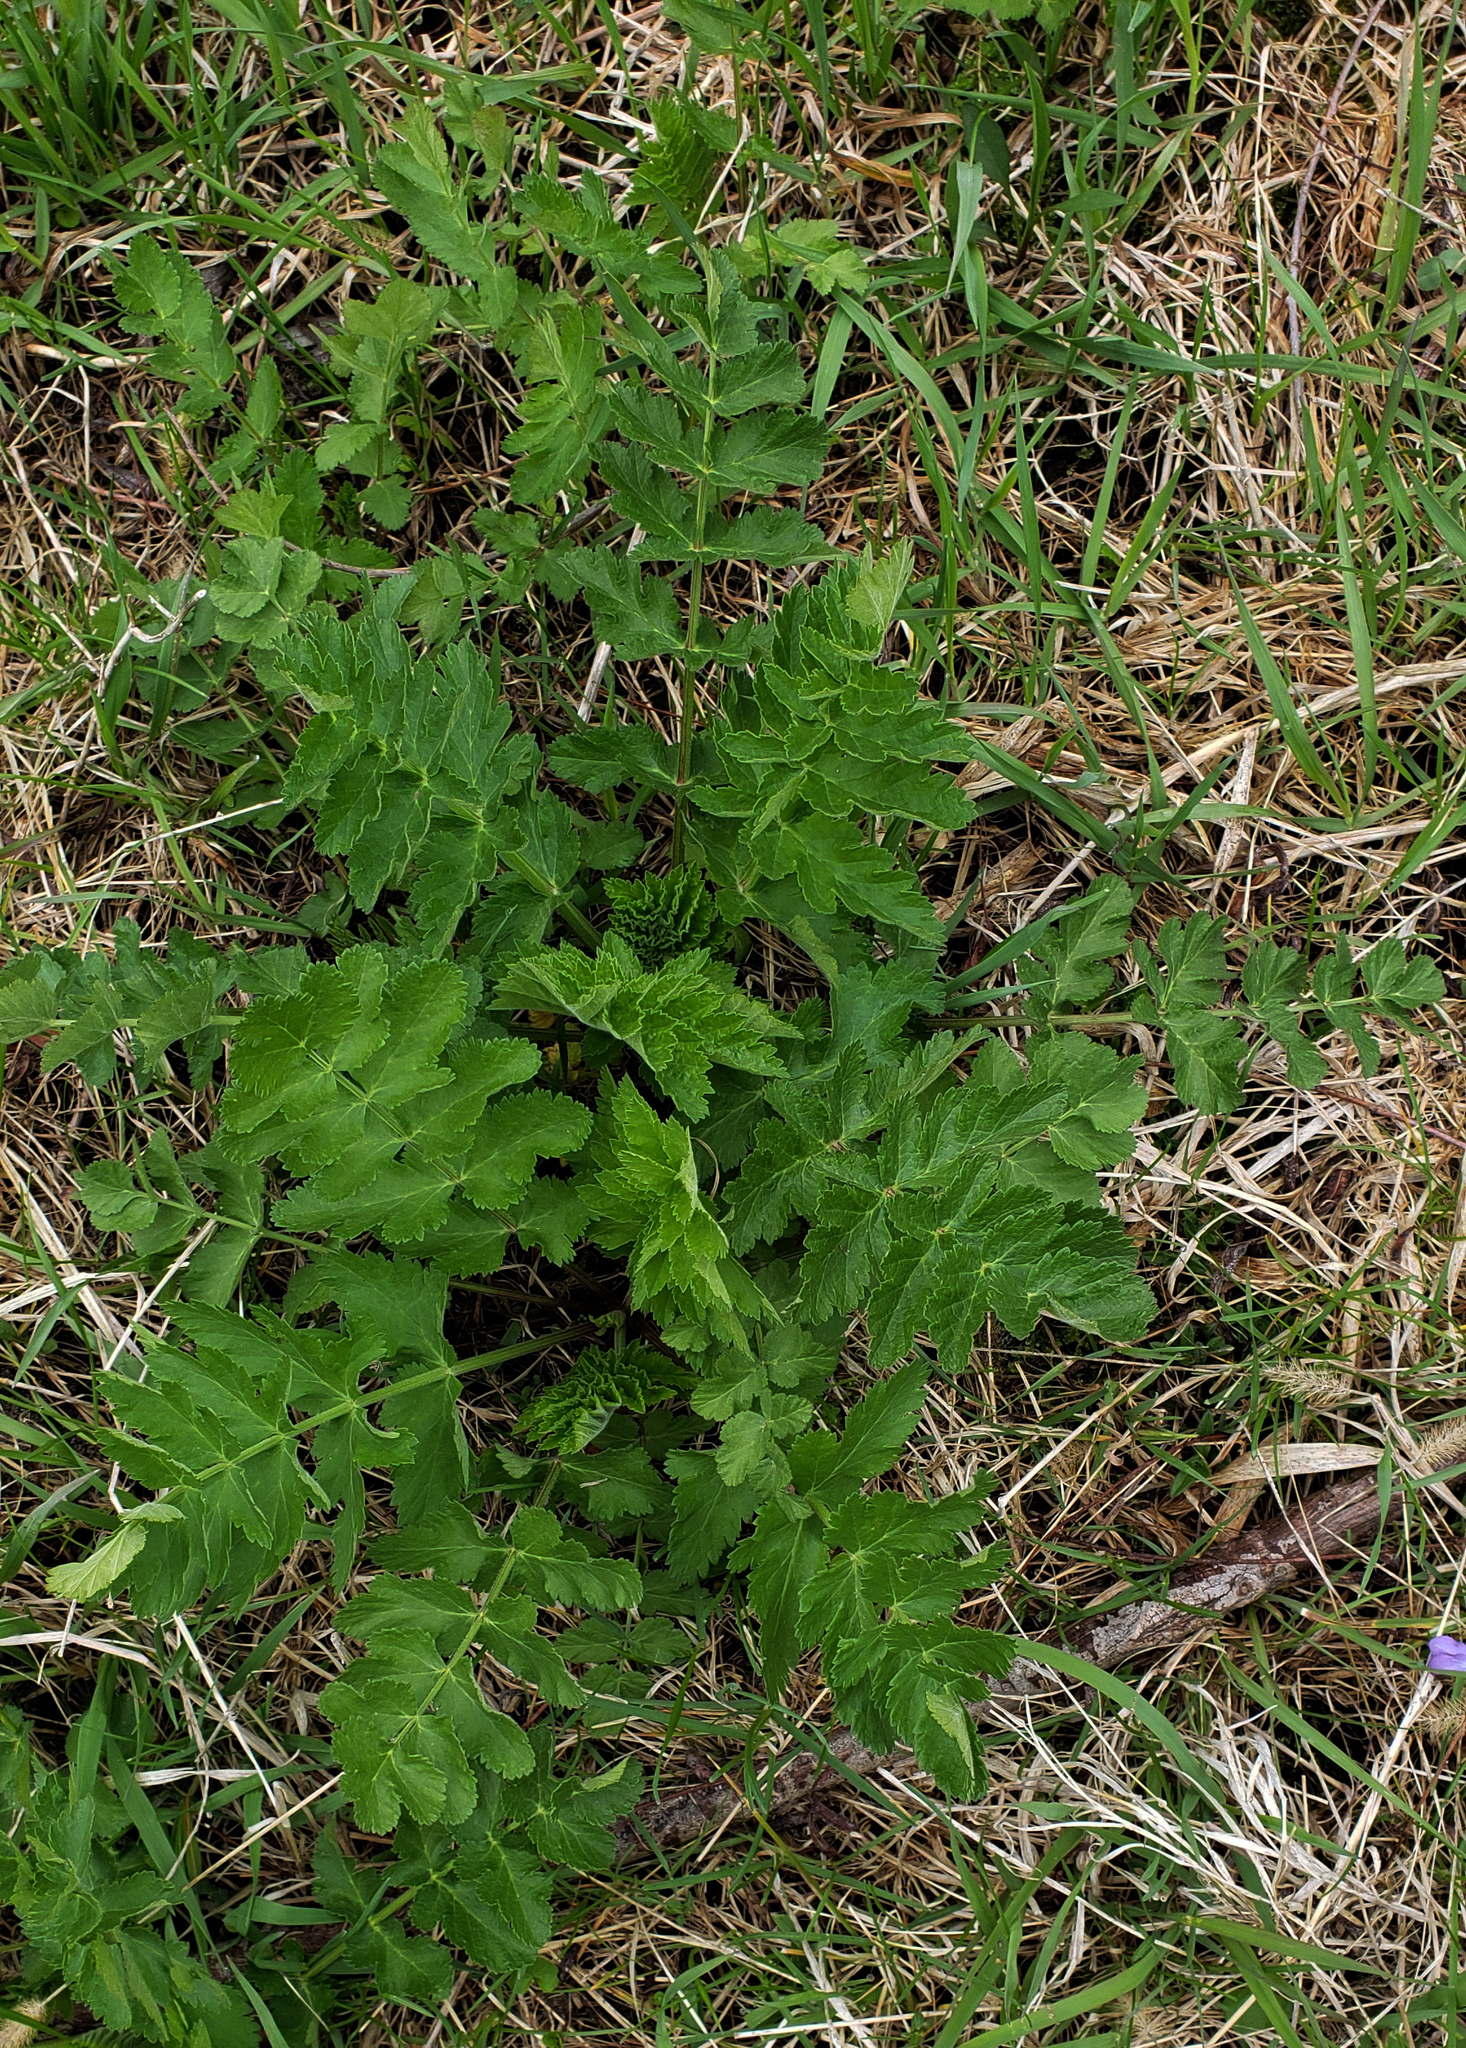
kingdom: Plantae
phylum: Tracheophyta
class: Magnoliopsida
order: Apiales
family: Apiaceae
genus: Pastinaca
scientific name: Pastinaca sativa
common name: Wild parsnip
